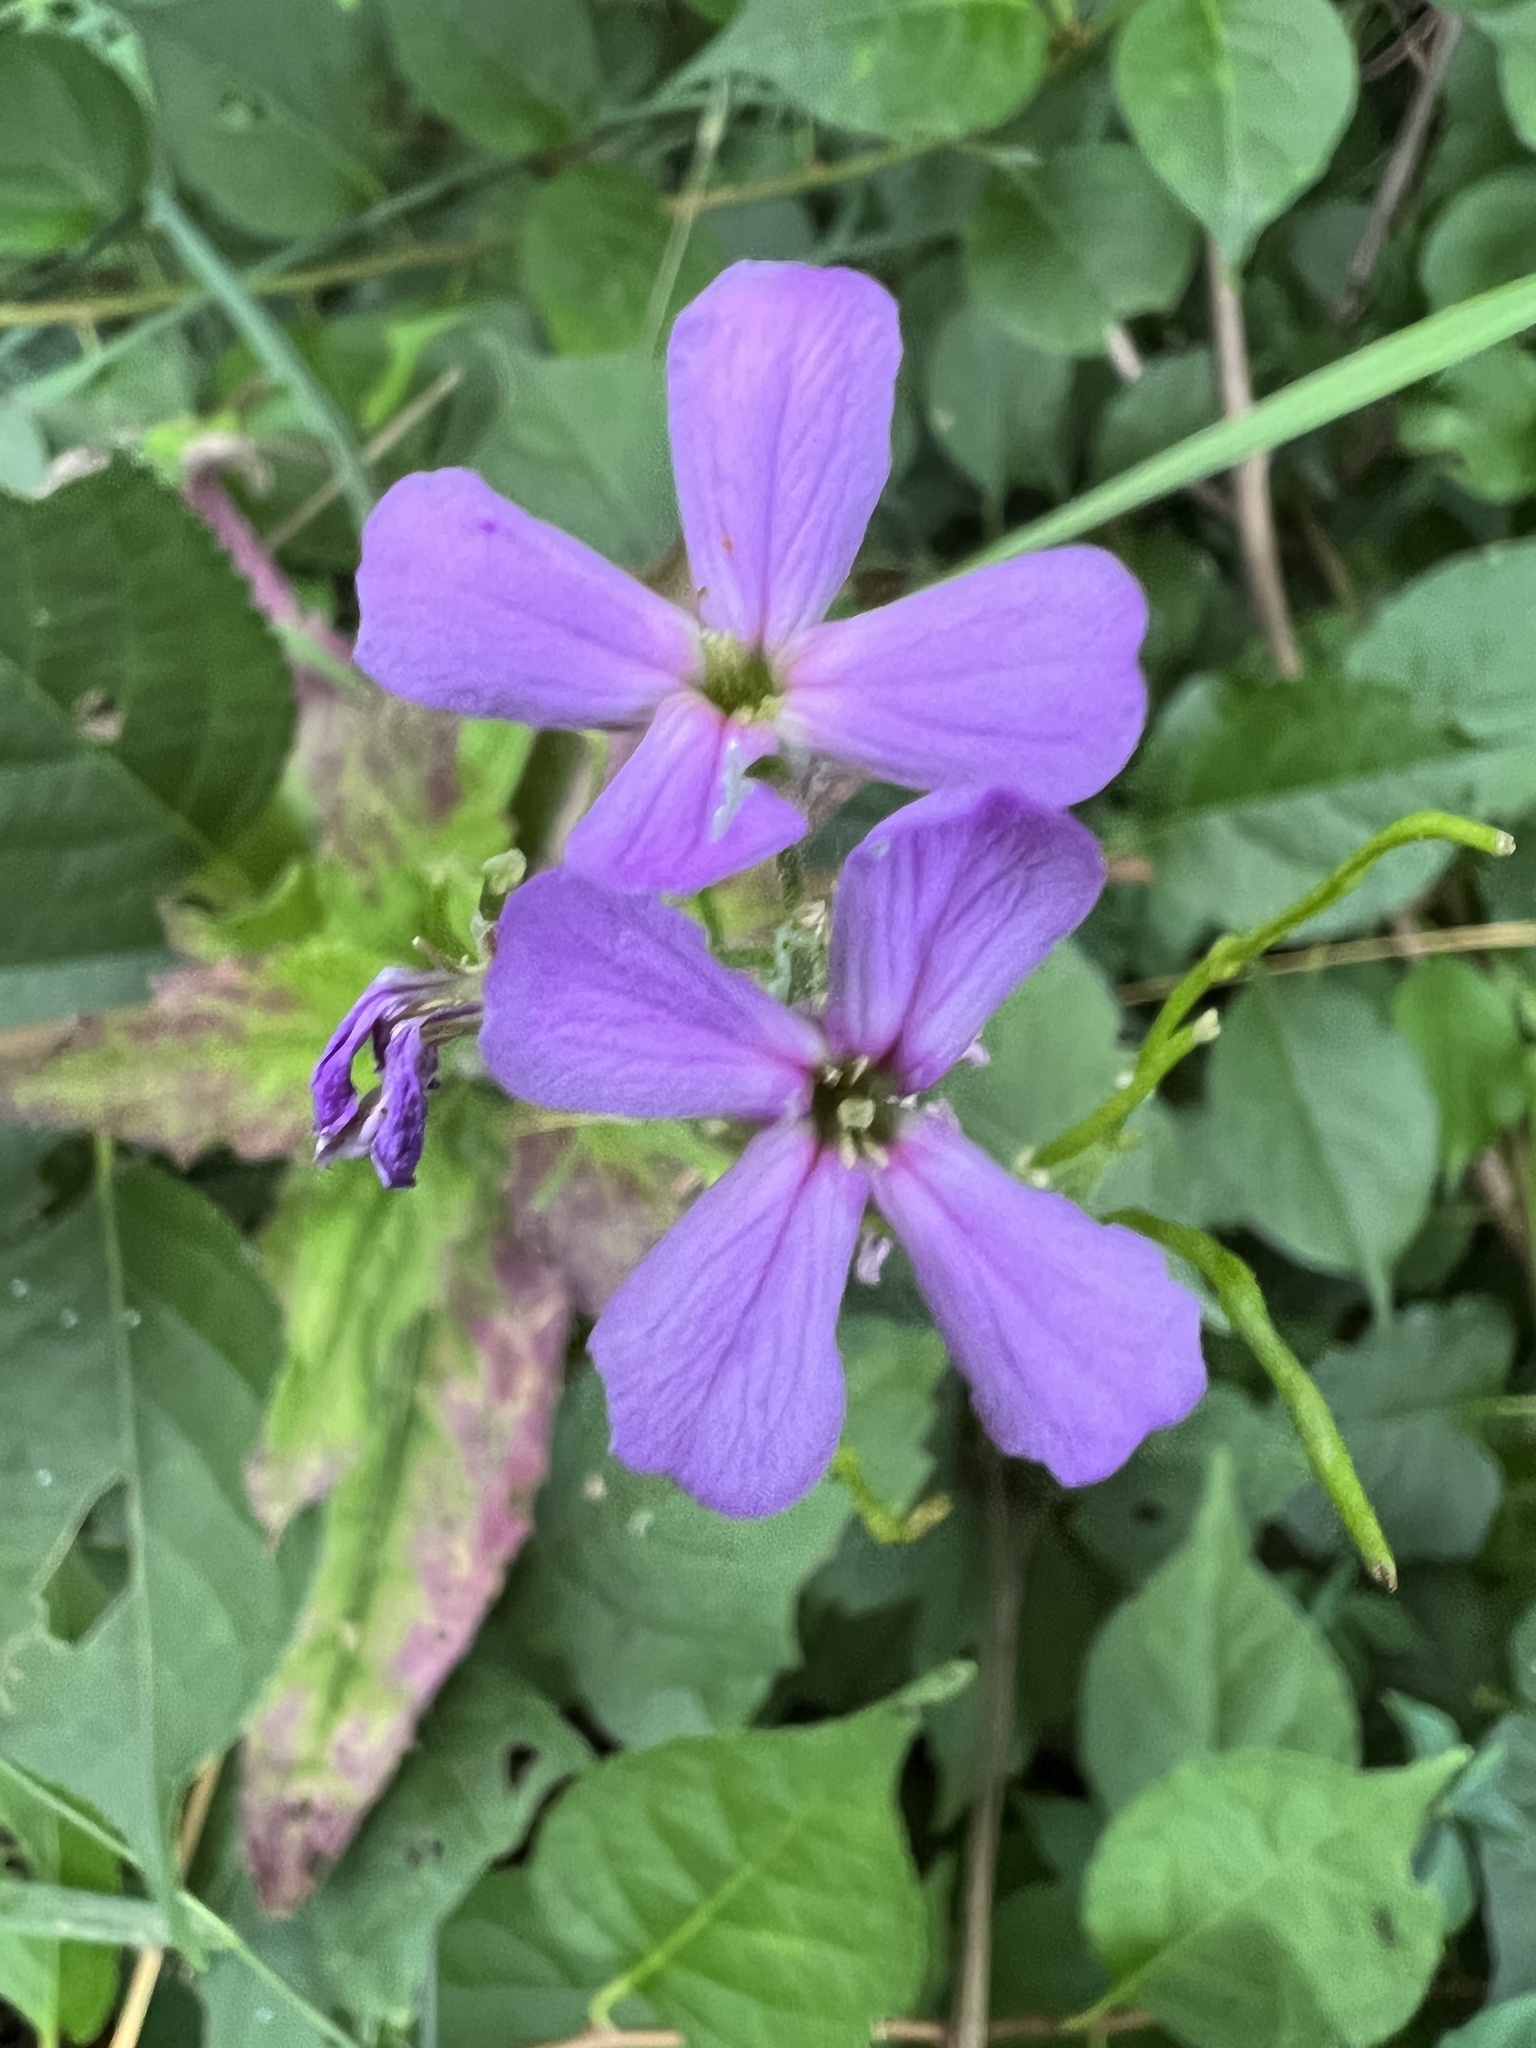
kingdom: Plantae
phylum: Tracheophyta
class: Magnoliopsida
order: Brassicales
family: Brassicaceae
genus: Hesperis
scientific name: Hesperis matronalis
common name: Dame's-violet
